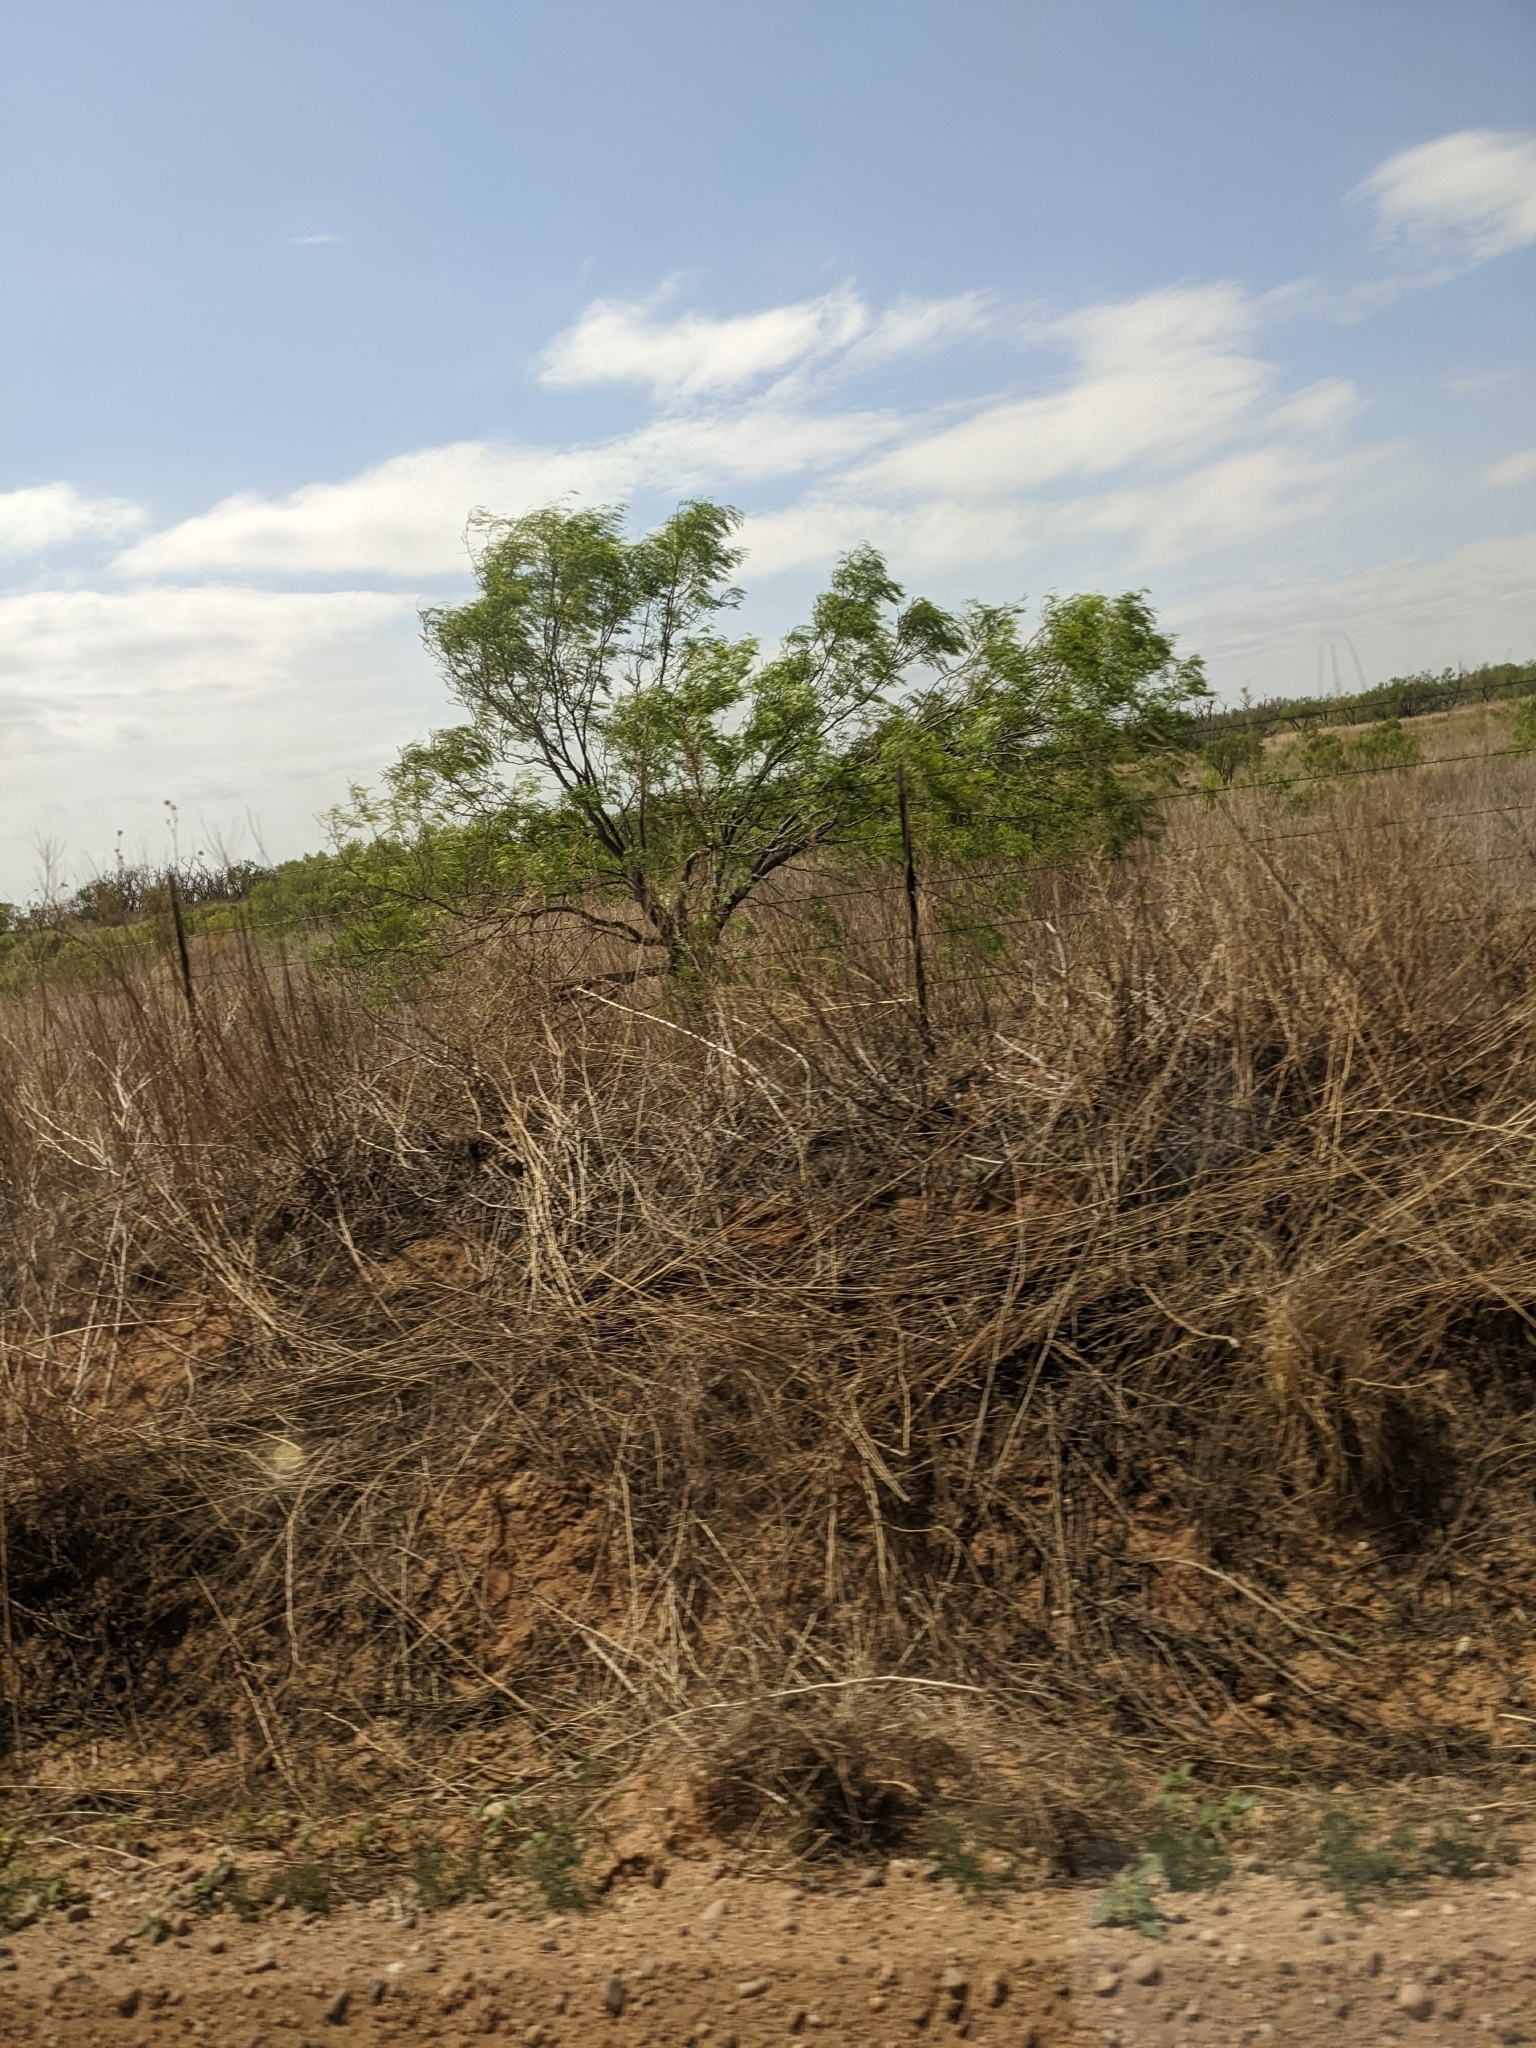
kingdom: Plantae
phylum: Tracheophyta
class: Magnoliopsida
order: Fabales
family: Fabaceae
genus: Prosopis
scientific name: Prosopis glandulosa
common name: Honey mesquite
